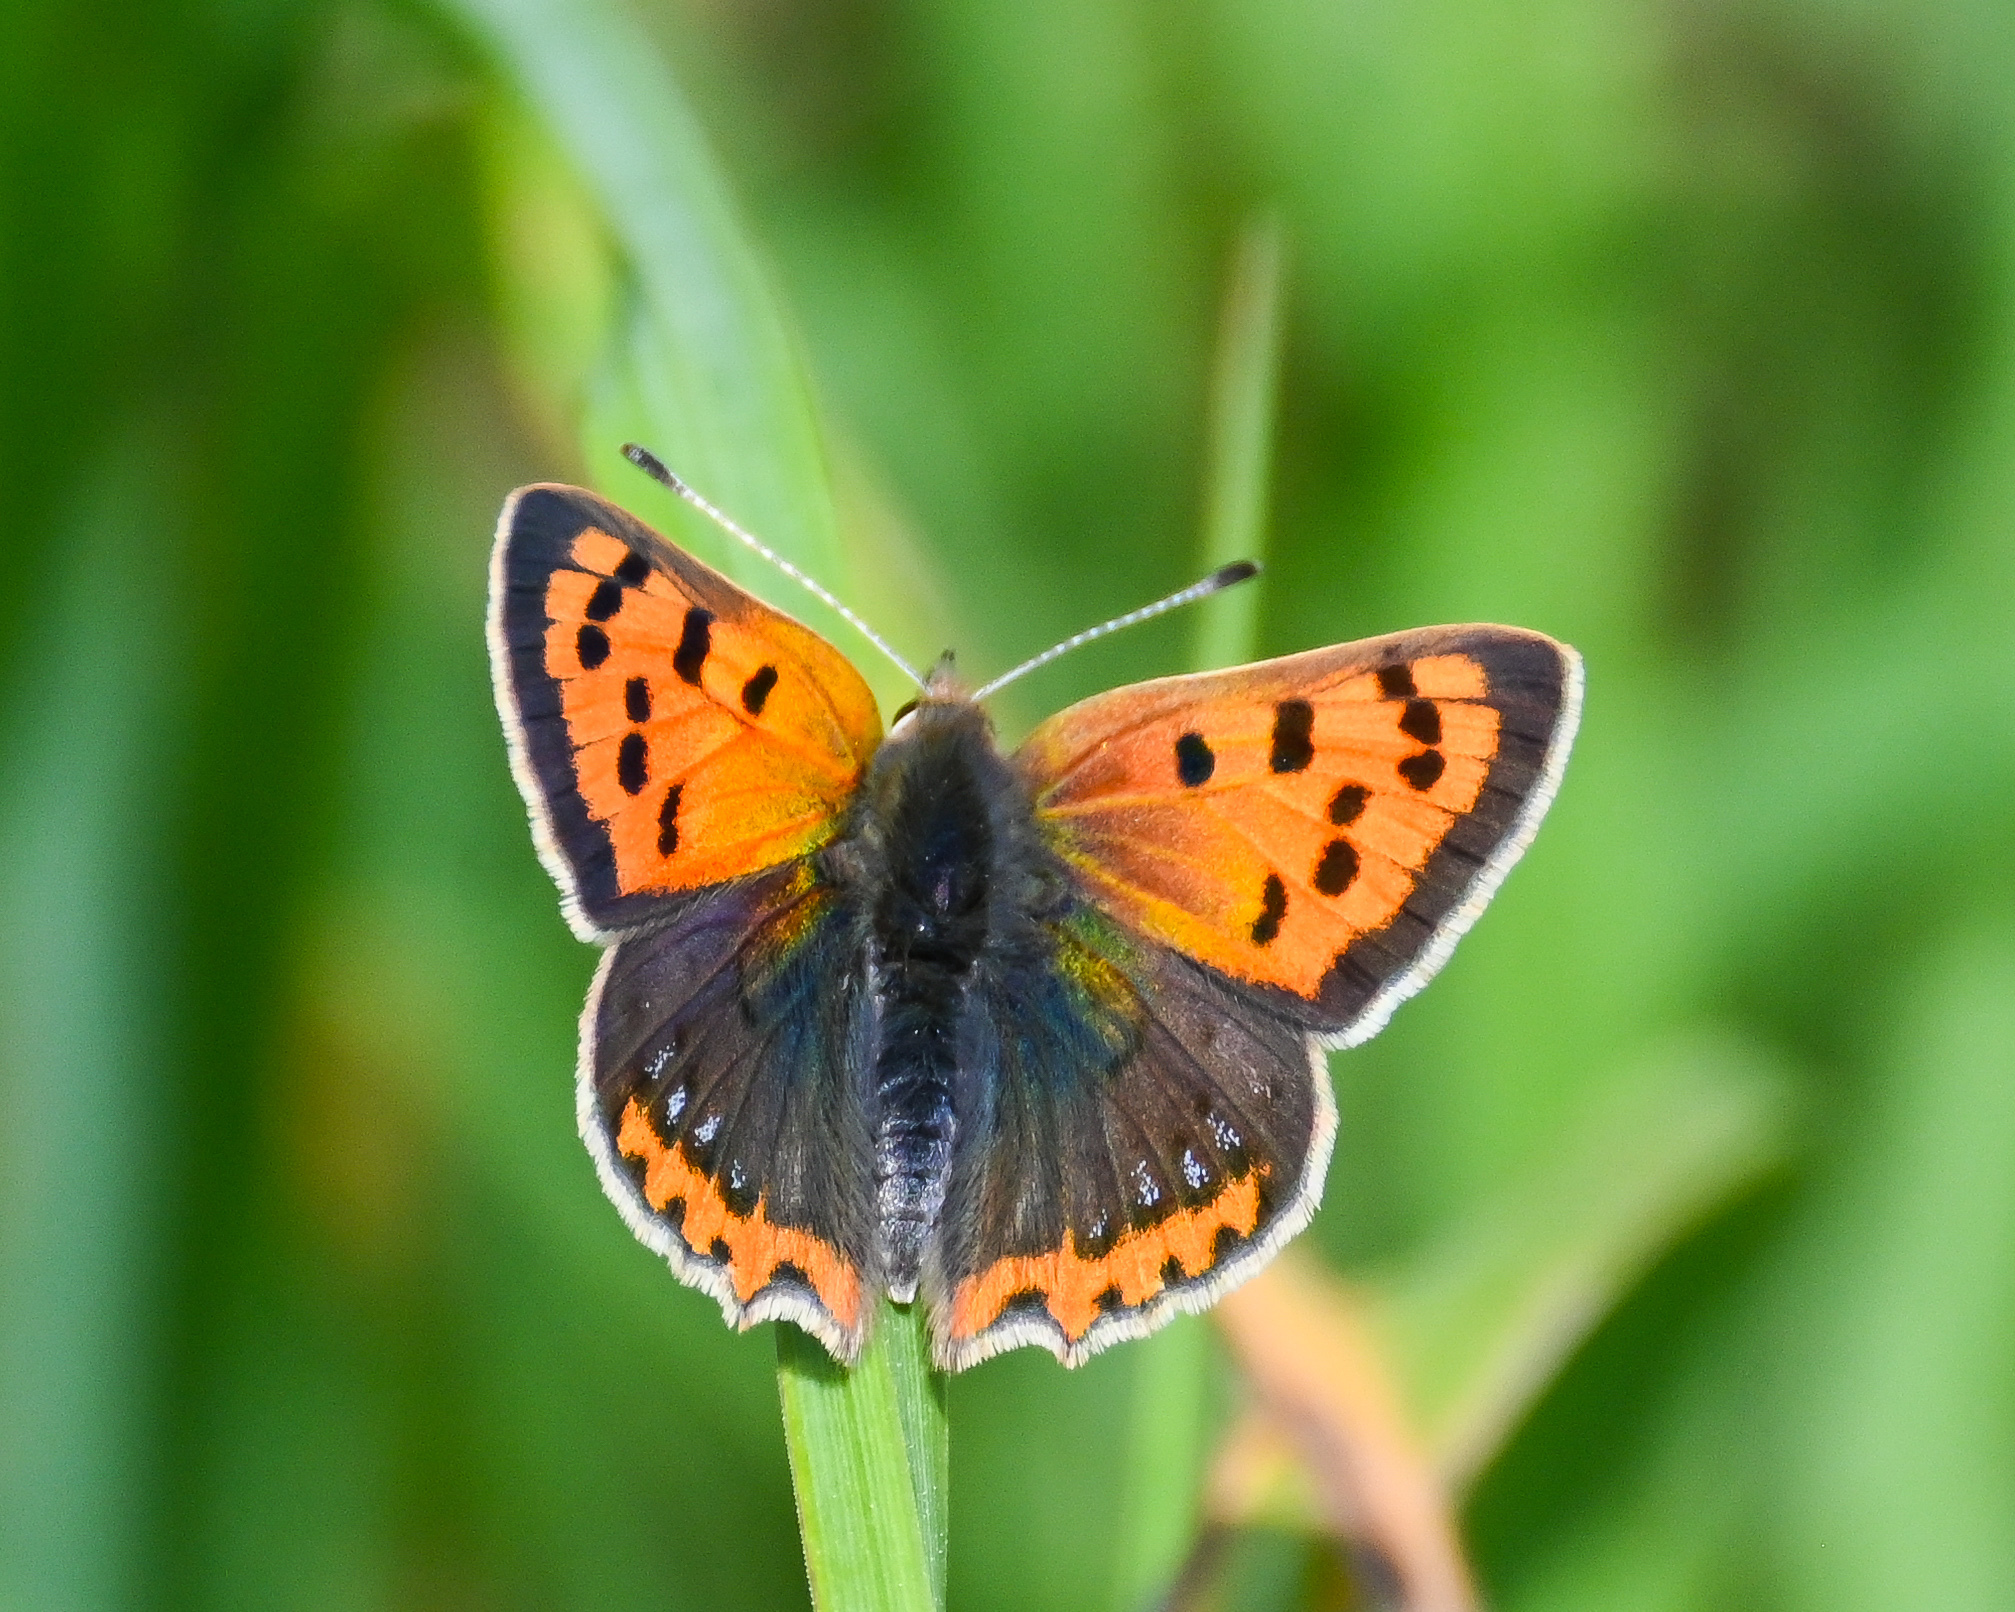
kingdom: Animalia
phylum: Arthropoda
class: Insecta
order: Lepidoptera
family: Lycaenidae
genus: Lycaena
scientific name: Lycaena phlaeas
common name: Small copper
